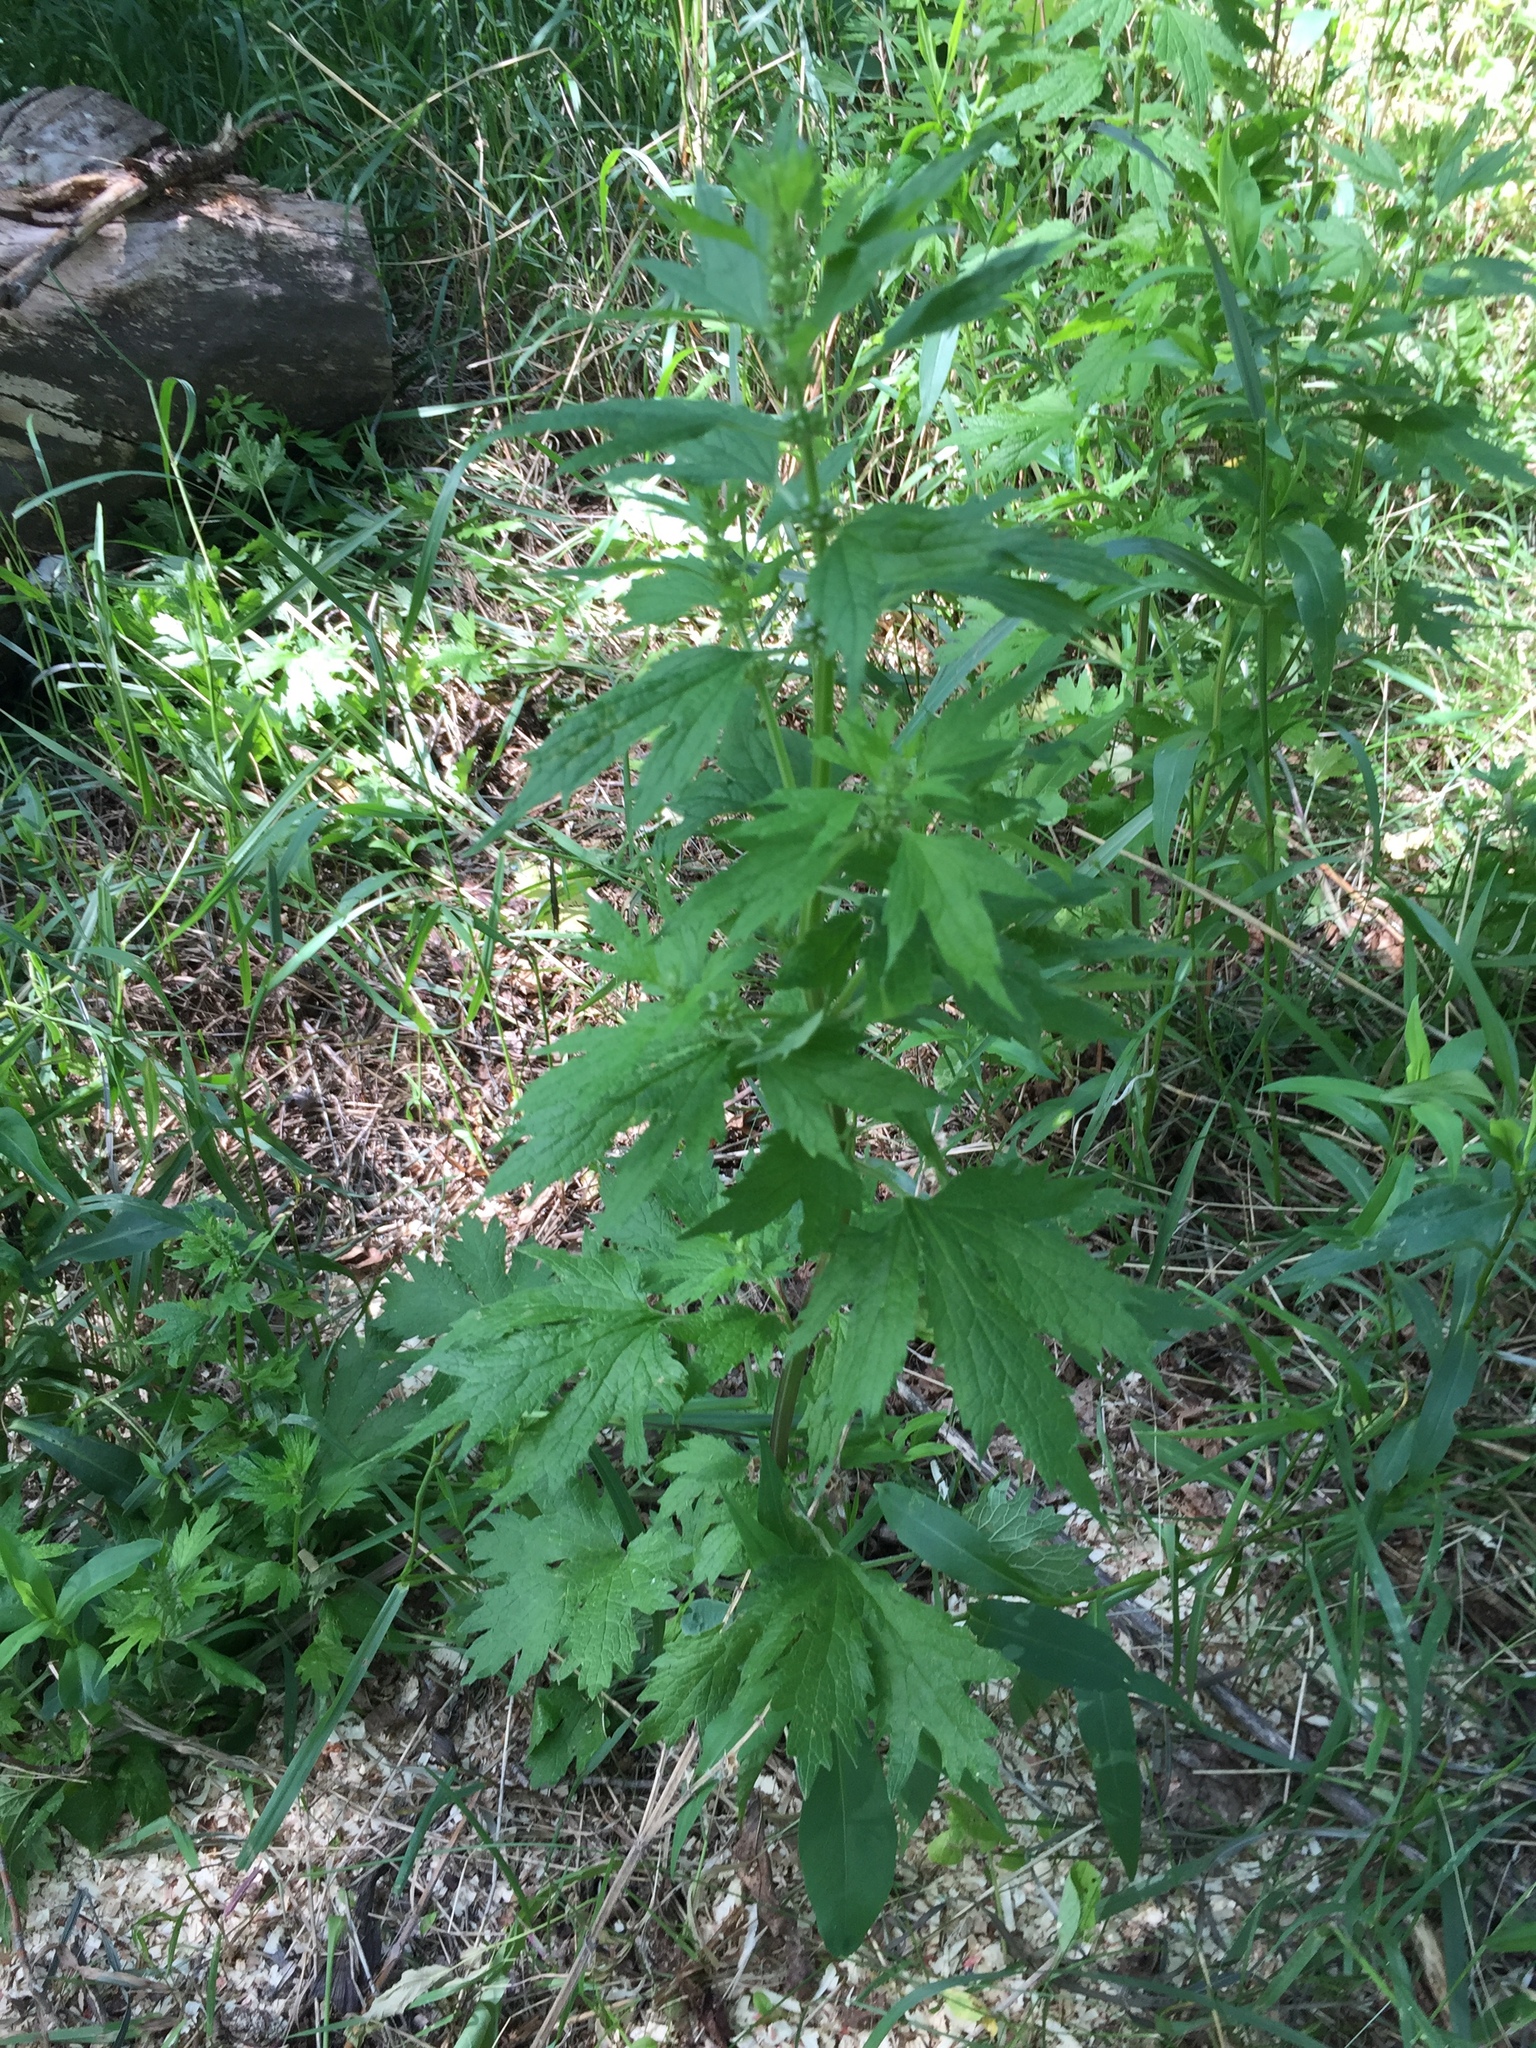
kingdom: Plantae
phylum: Tracheophyta
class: Magnoliopsida
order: Lamiales
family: Lamiaceae
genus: Leonurus
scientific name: Leonurus cardiaca
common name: Motherwort
